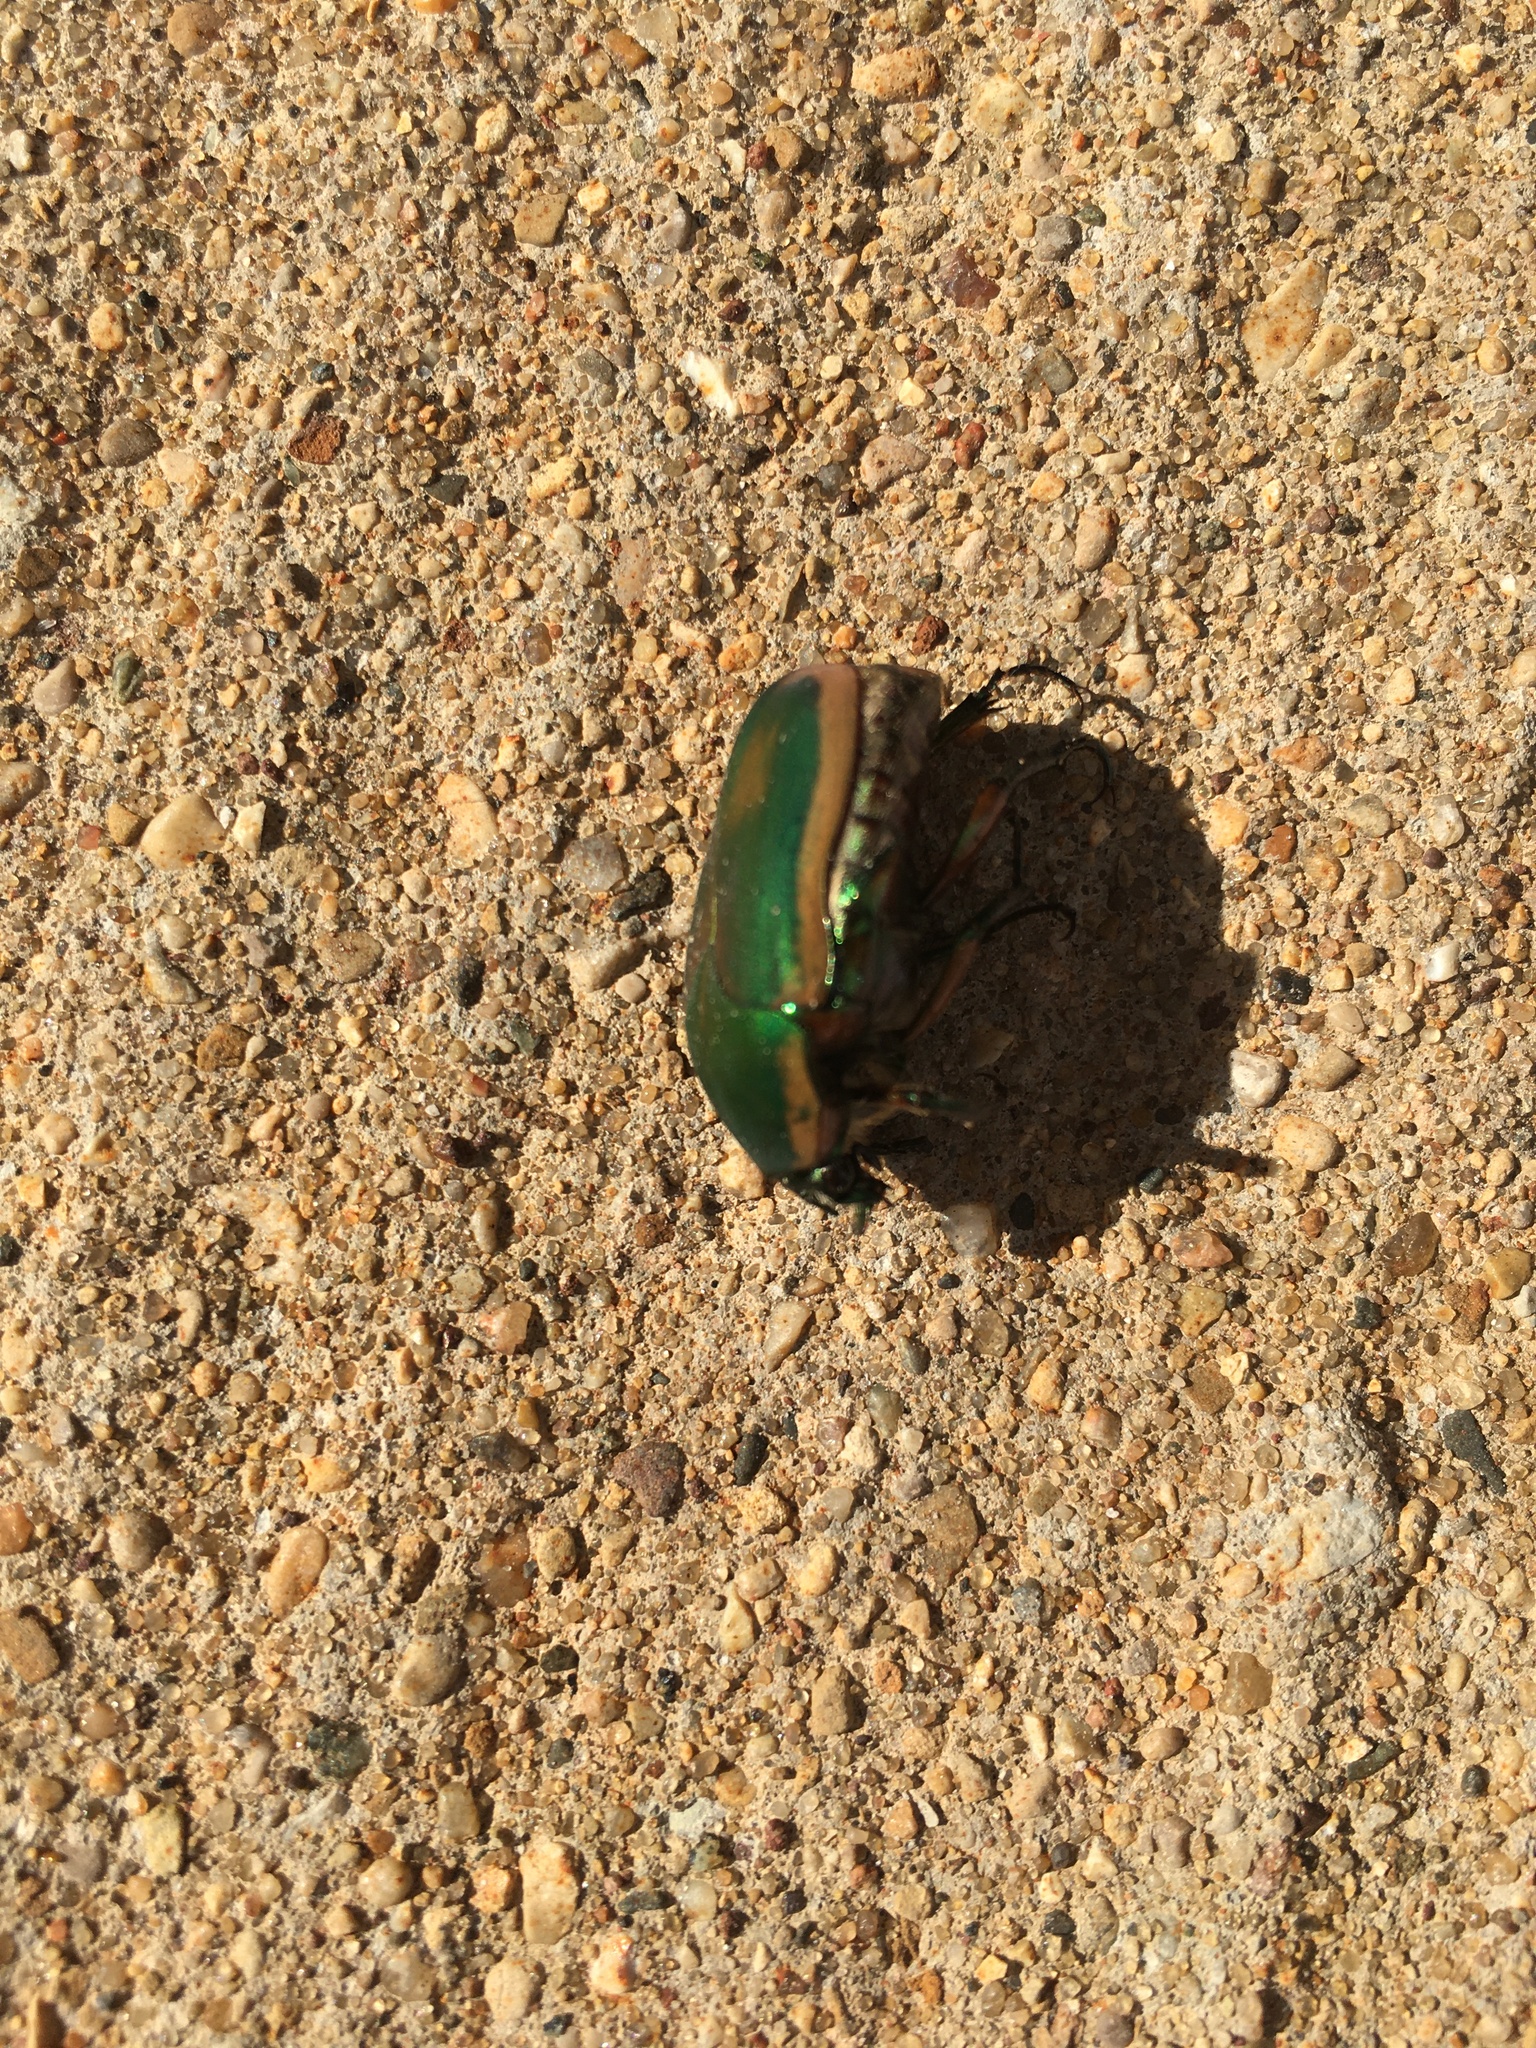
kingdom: Animalia
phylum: Arthropoda
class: Insecta
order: Coleoptera
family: Scarabaeidae
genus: Cotinis
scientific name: Cotinis nitida
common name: Common green june beetle
